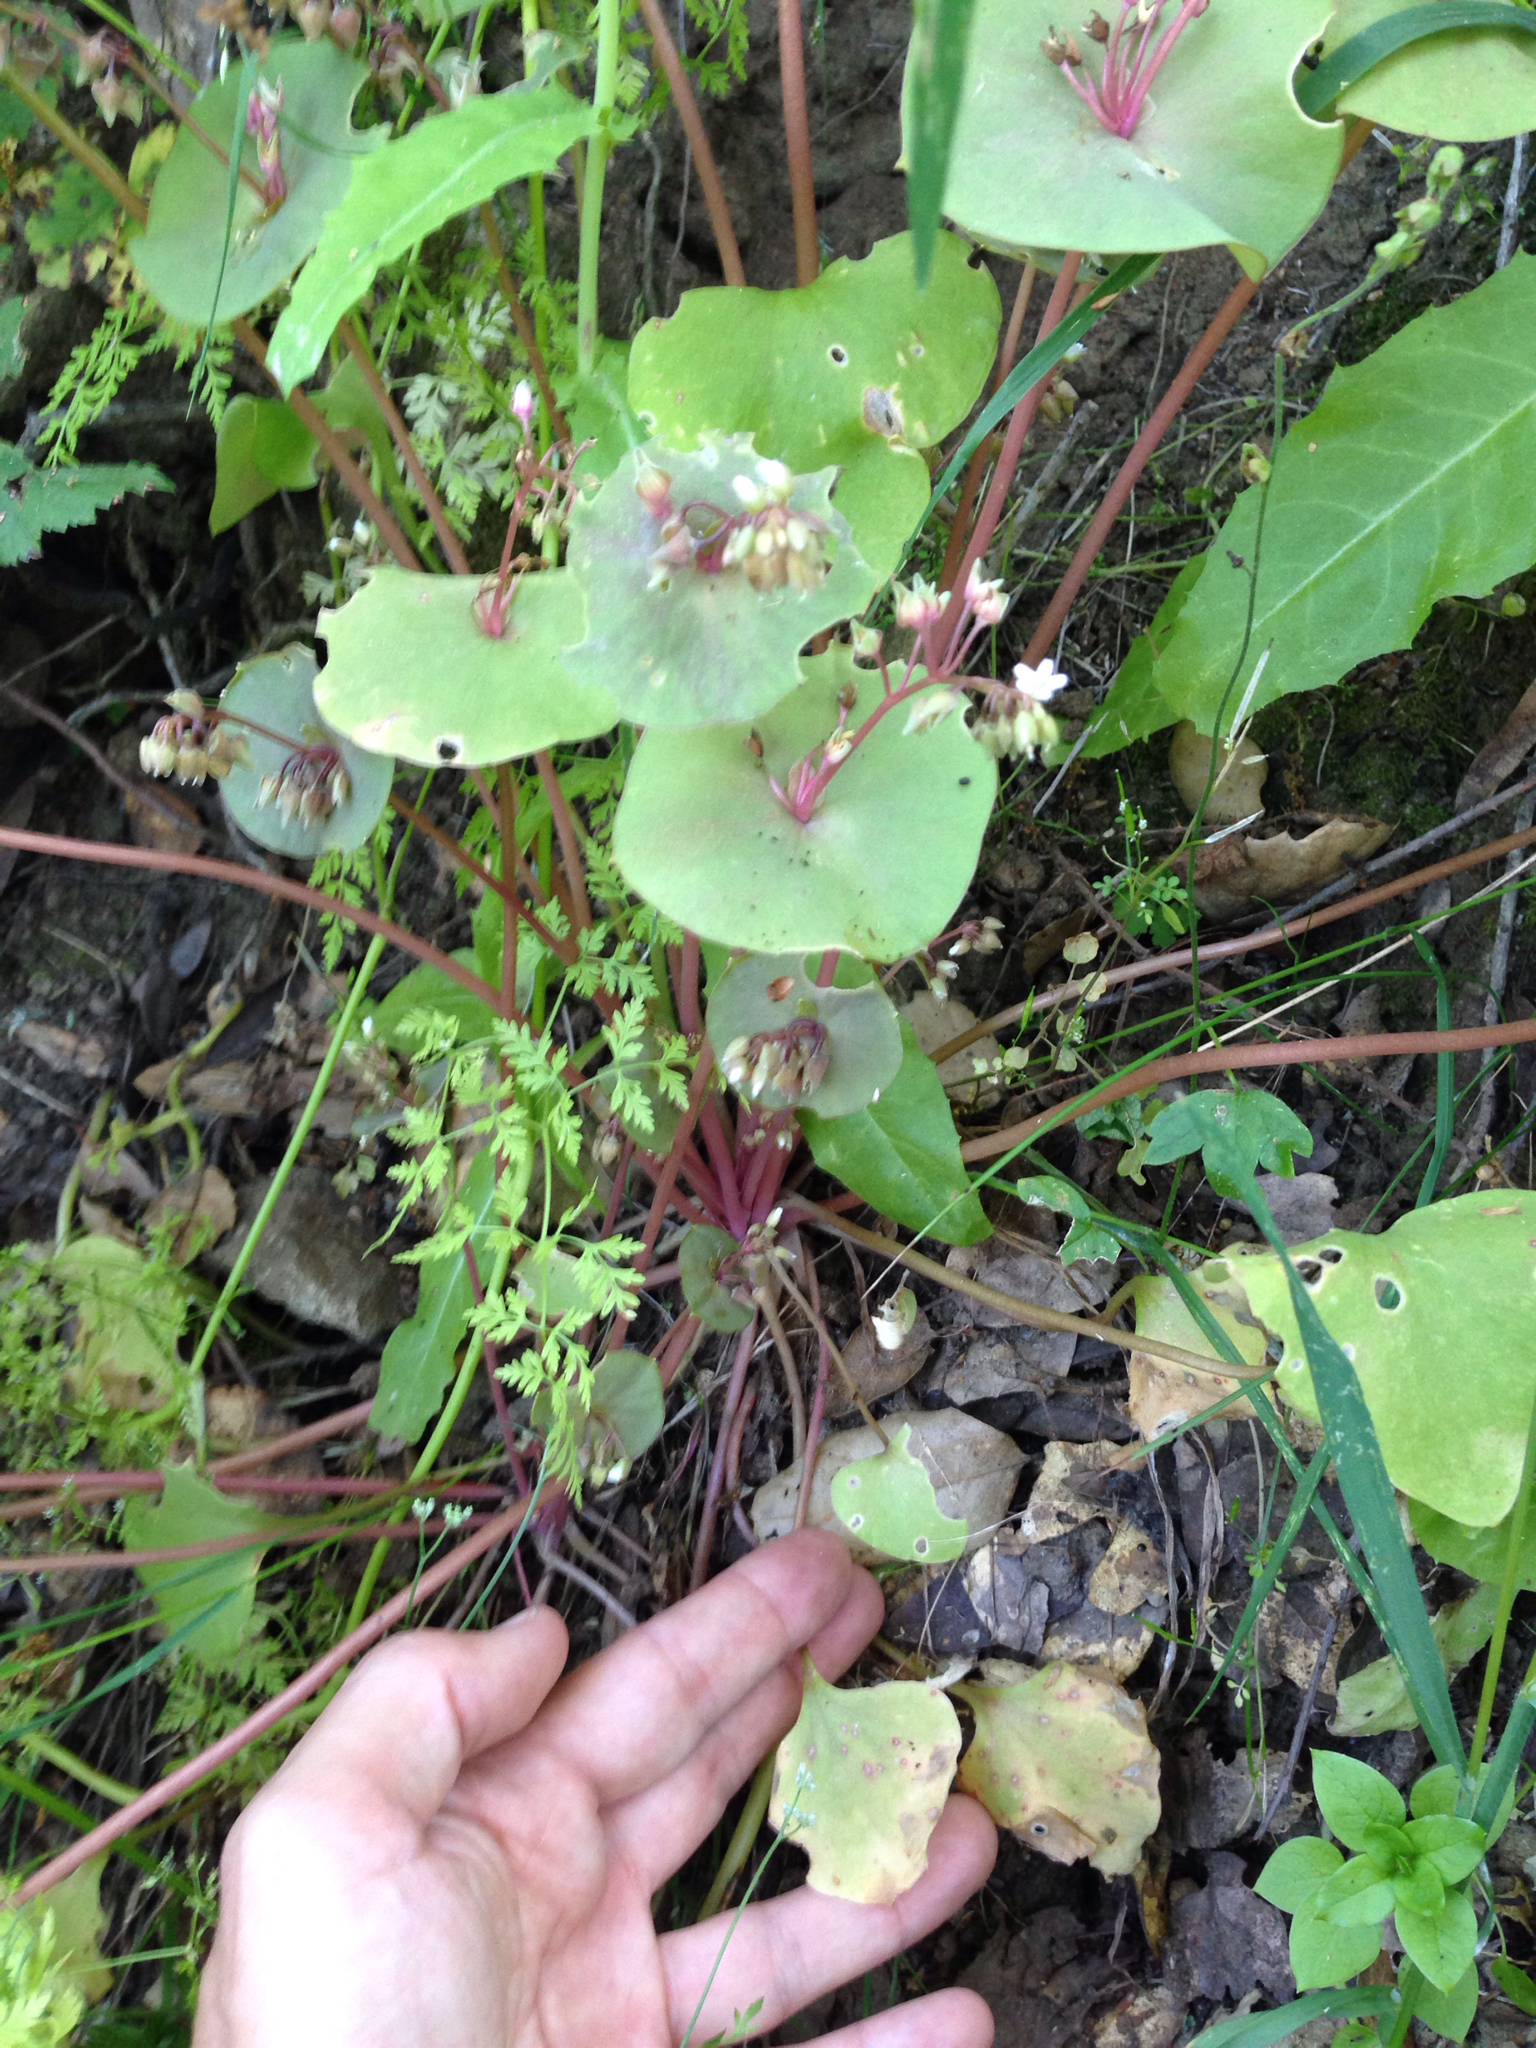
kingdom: Plantae
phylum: Tracheophyta
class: Magnoliopsida
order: Caryophyllales
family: Montiaceae
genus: Claytonia
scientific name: Claytonia perfoliata
